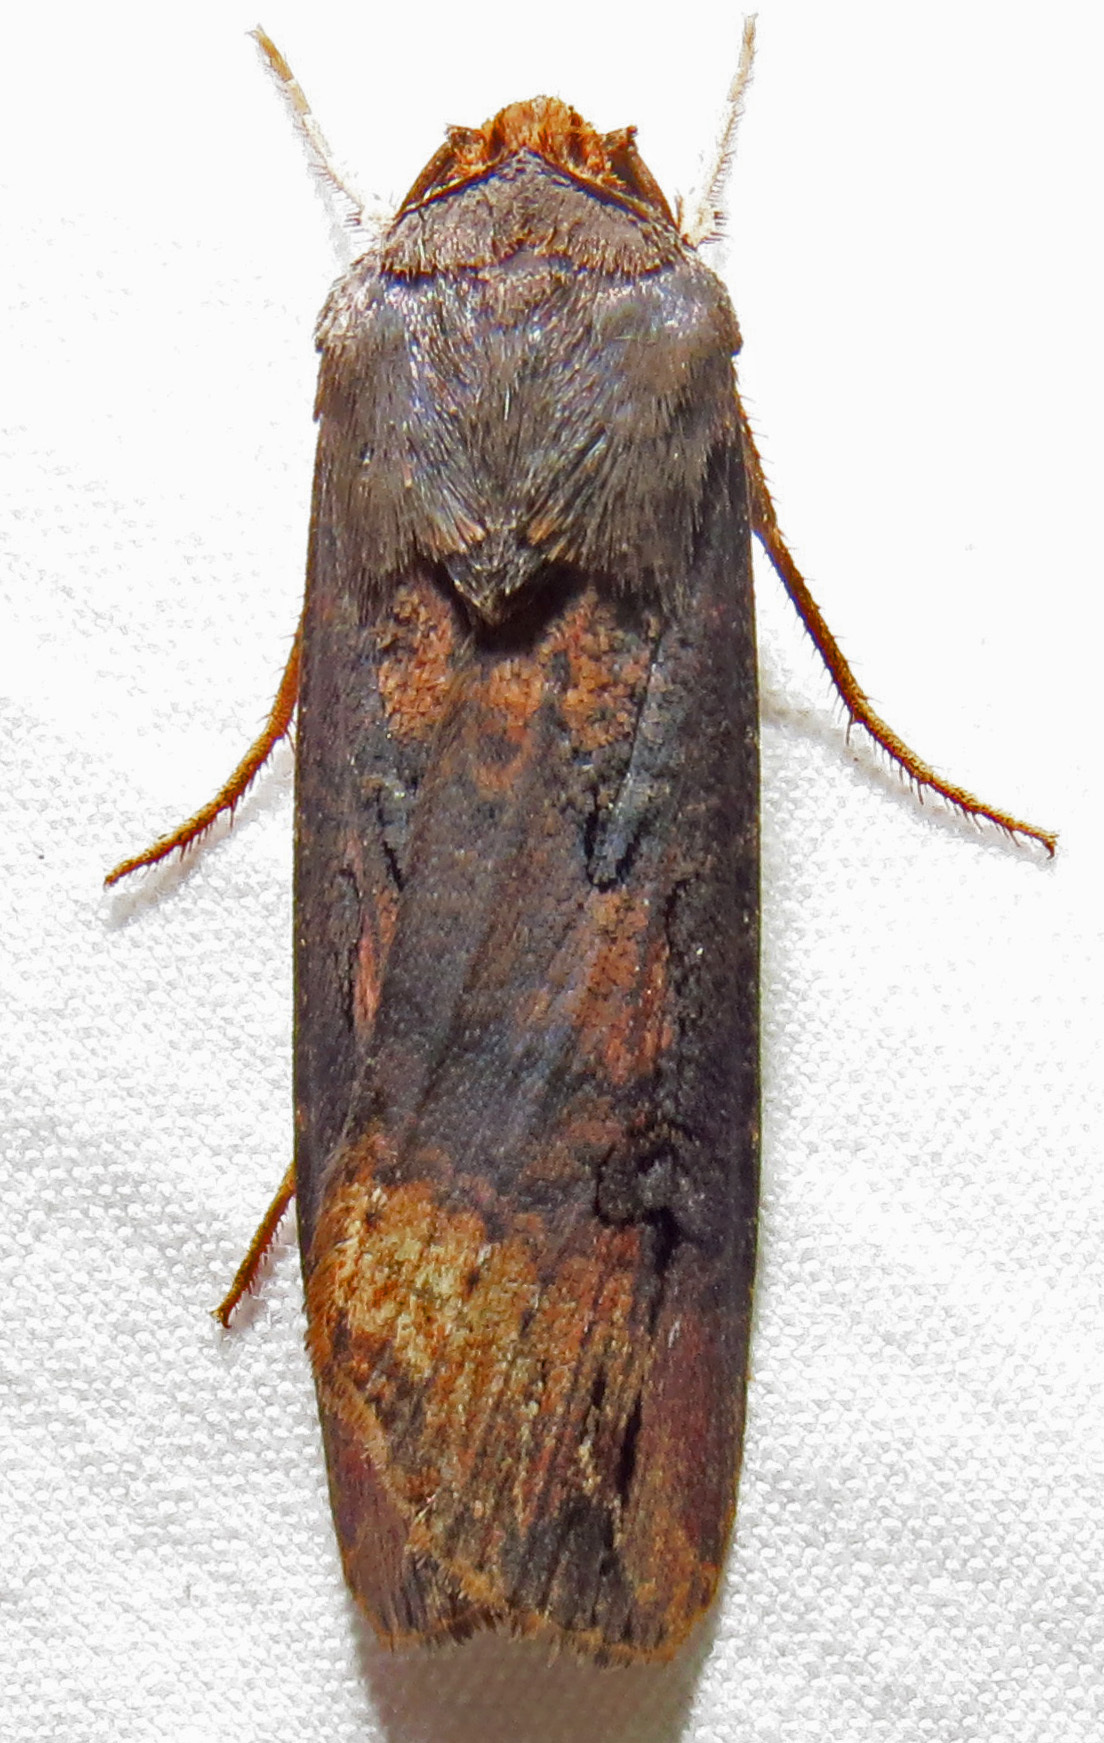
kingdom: Animalia
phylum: Arthropoda
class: Insecta
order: Lepidoptera
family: Noctuidae
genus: Agrotis
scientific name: Agrotis ipsilon
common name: Dark sword-grass
